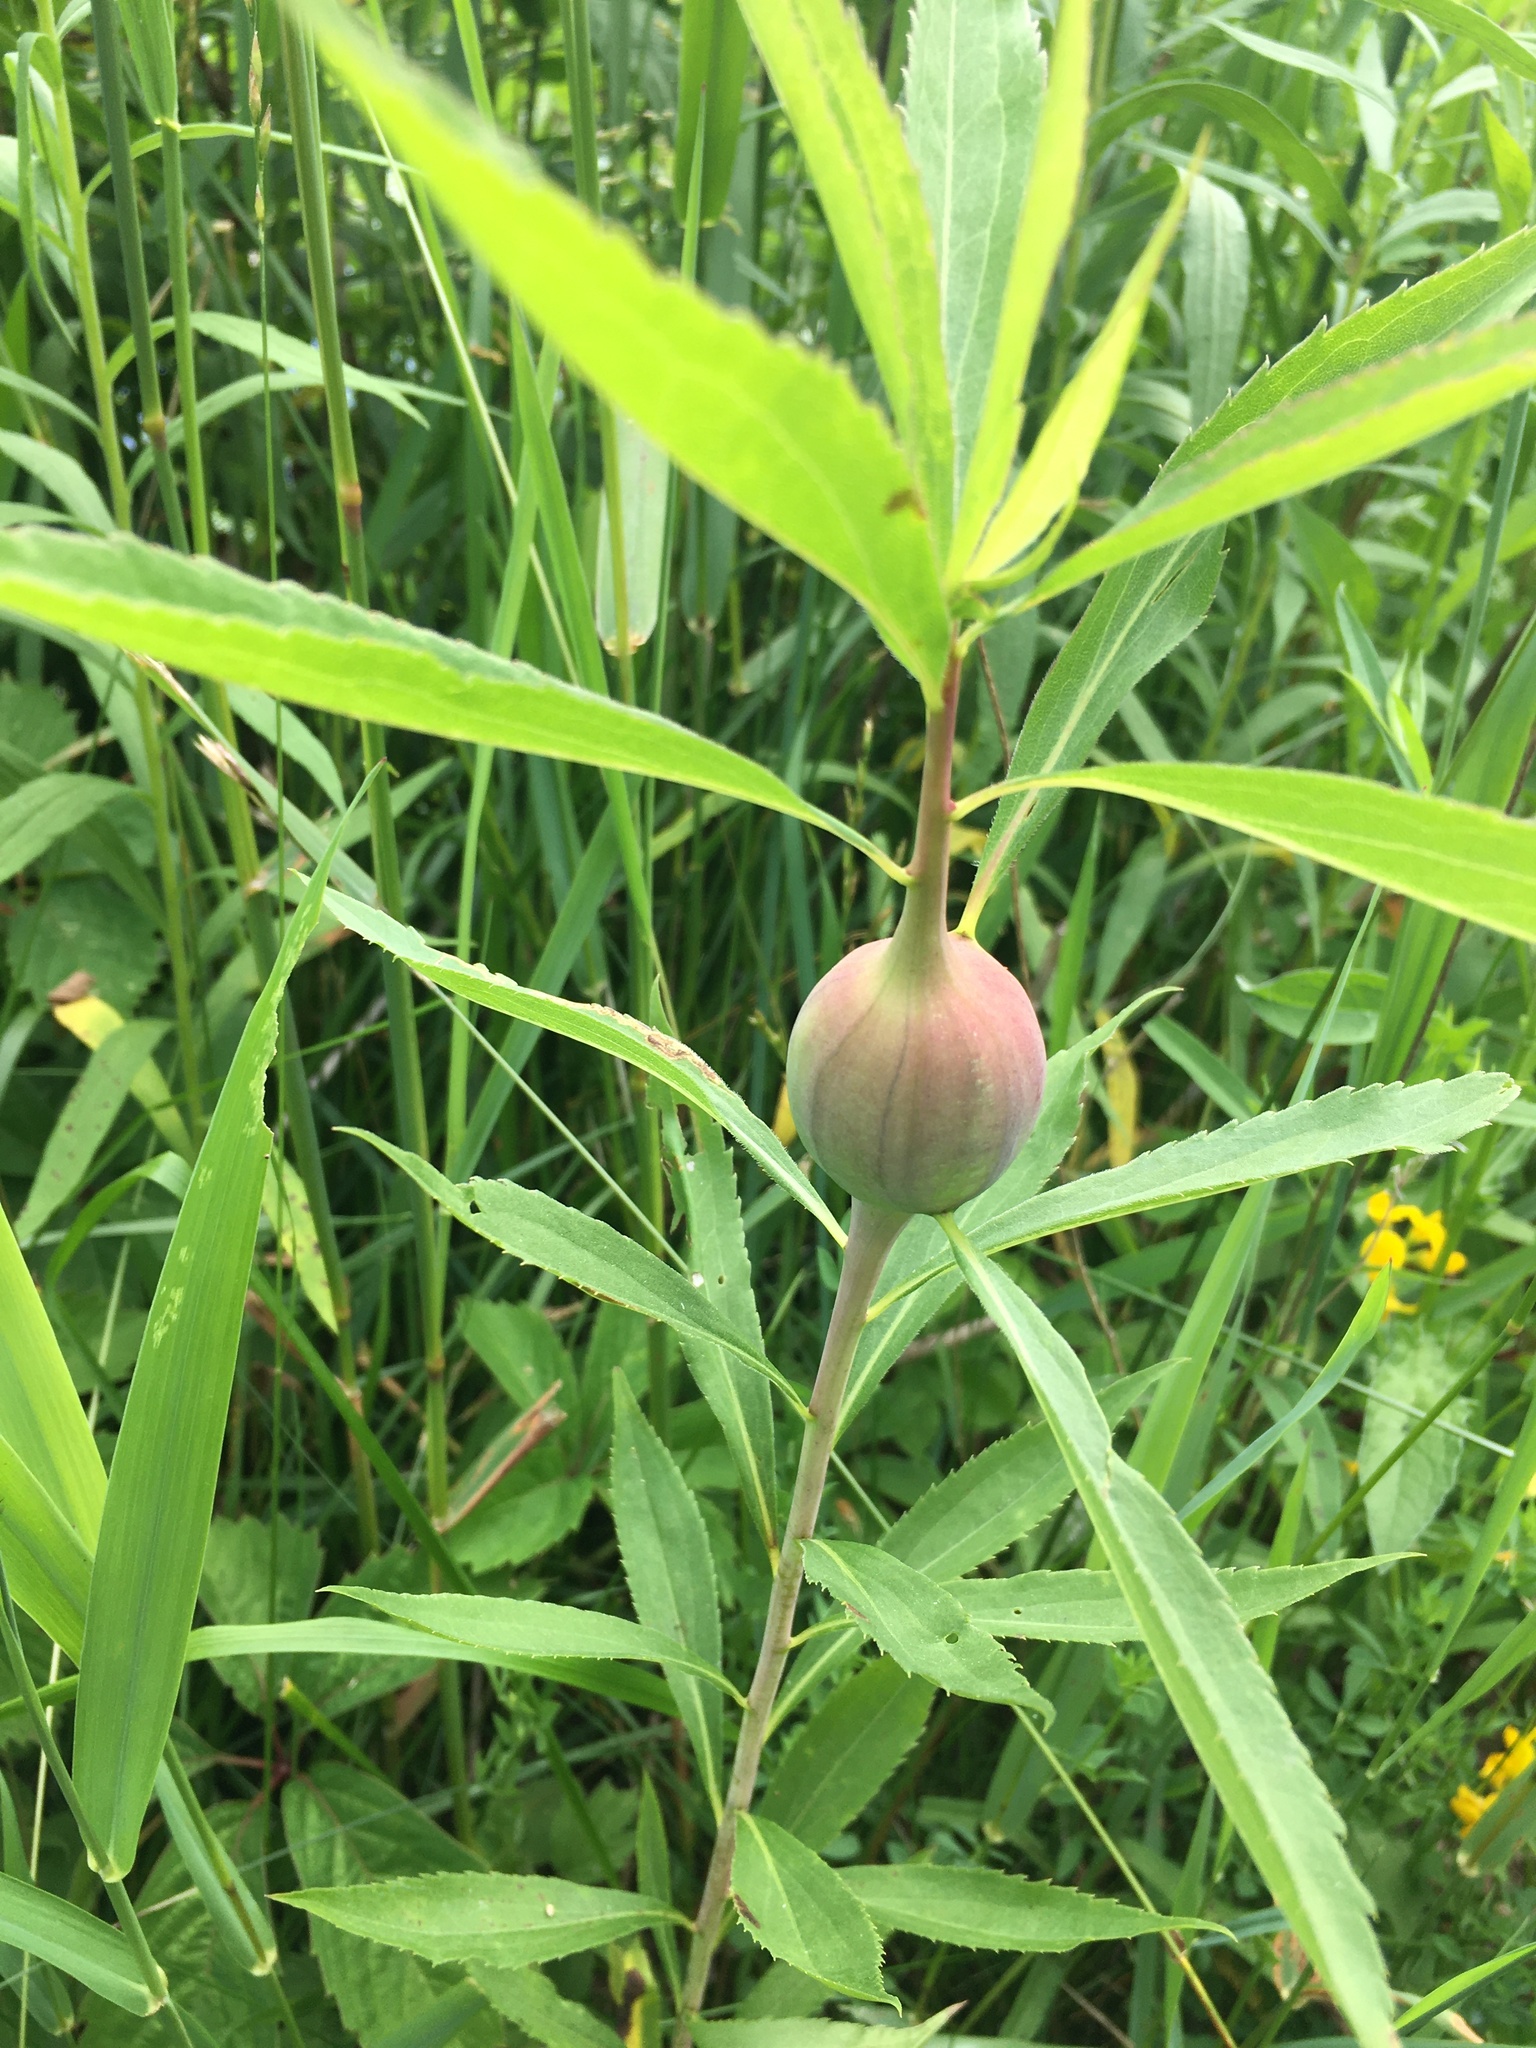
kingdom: Animalia
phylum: Arthropoda
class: Insecta
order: Diptera
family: Tephritidae
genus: Eurosta
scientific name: Eurosta solidaginis
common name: Goldenrod gall fly
